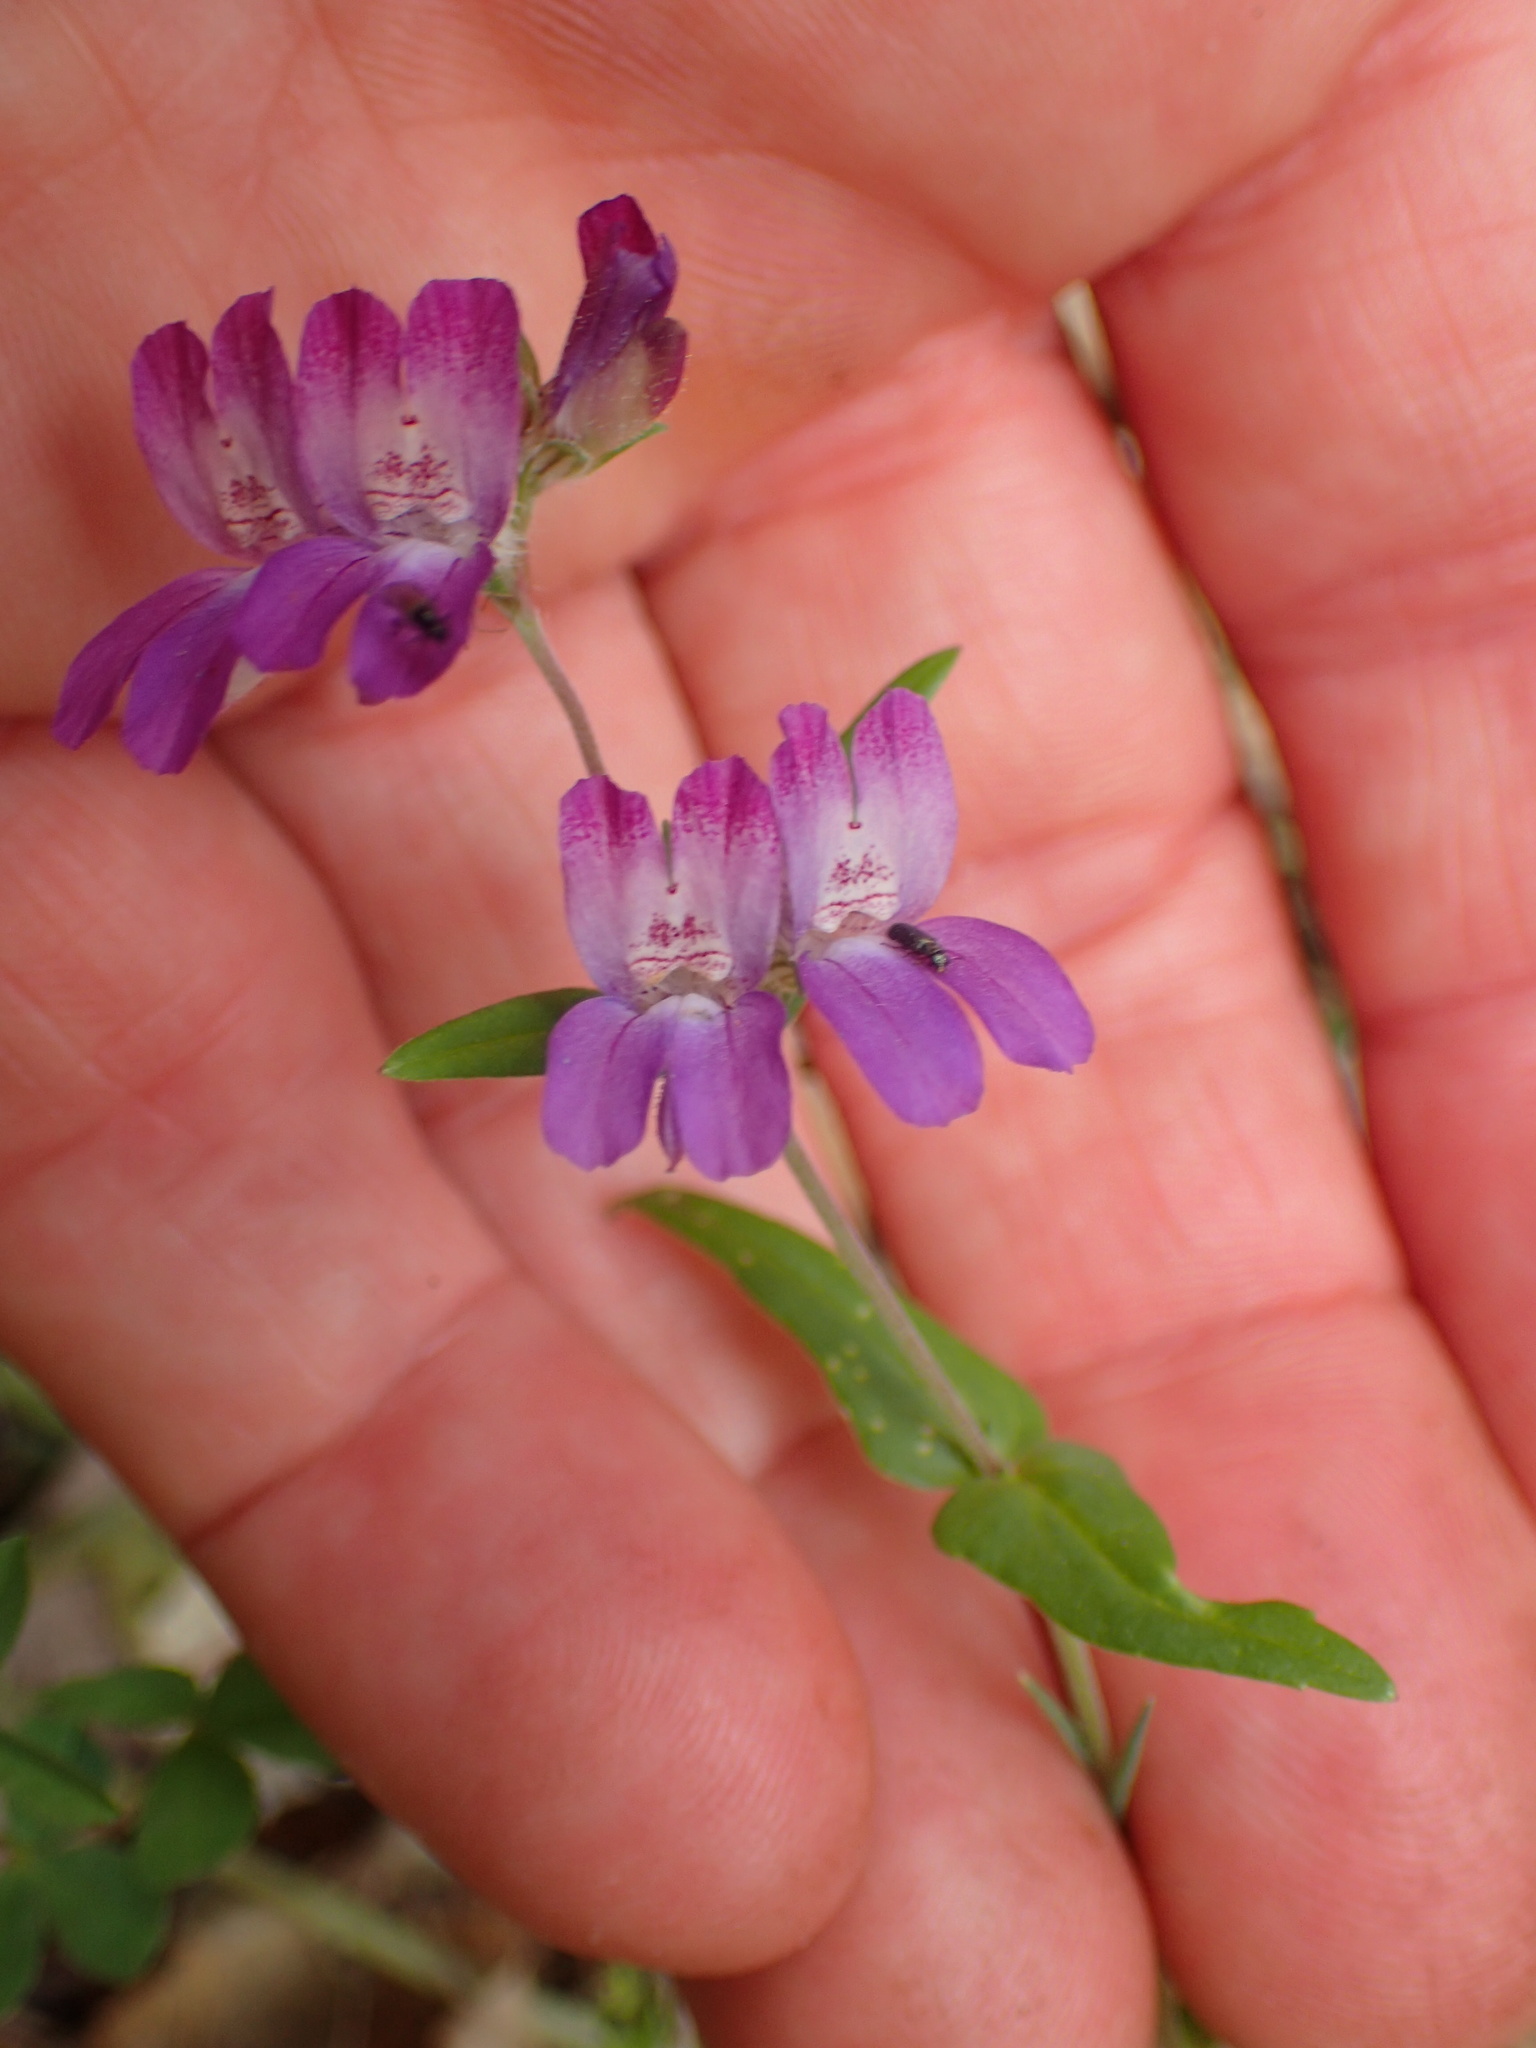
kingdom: Plantae
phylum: Tracheophyta
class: Magnoliopsida
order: Lamiales
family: Plantaginaceae
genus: Collinsia
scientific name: Collinsia heterophylla
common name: Chinese-houses
